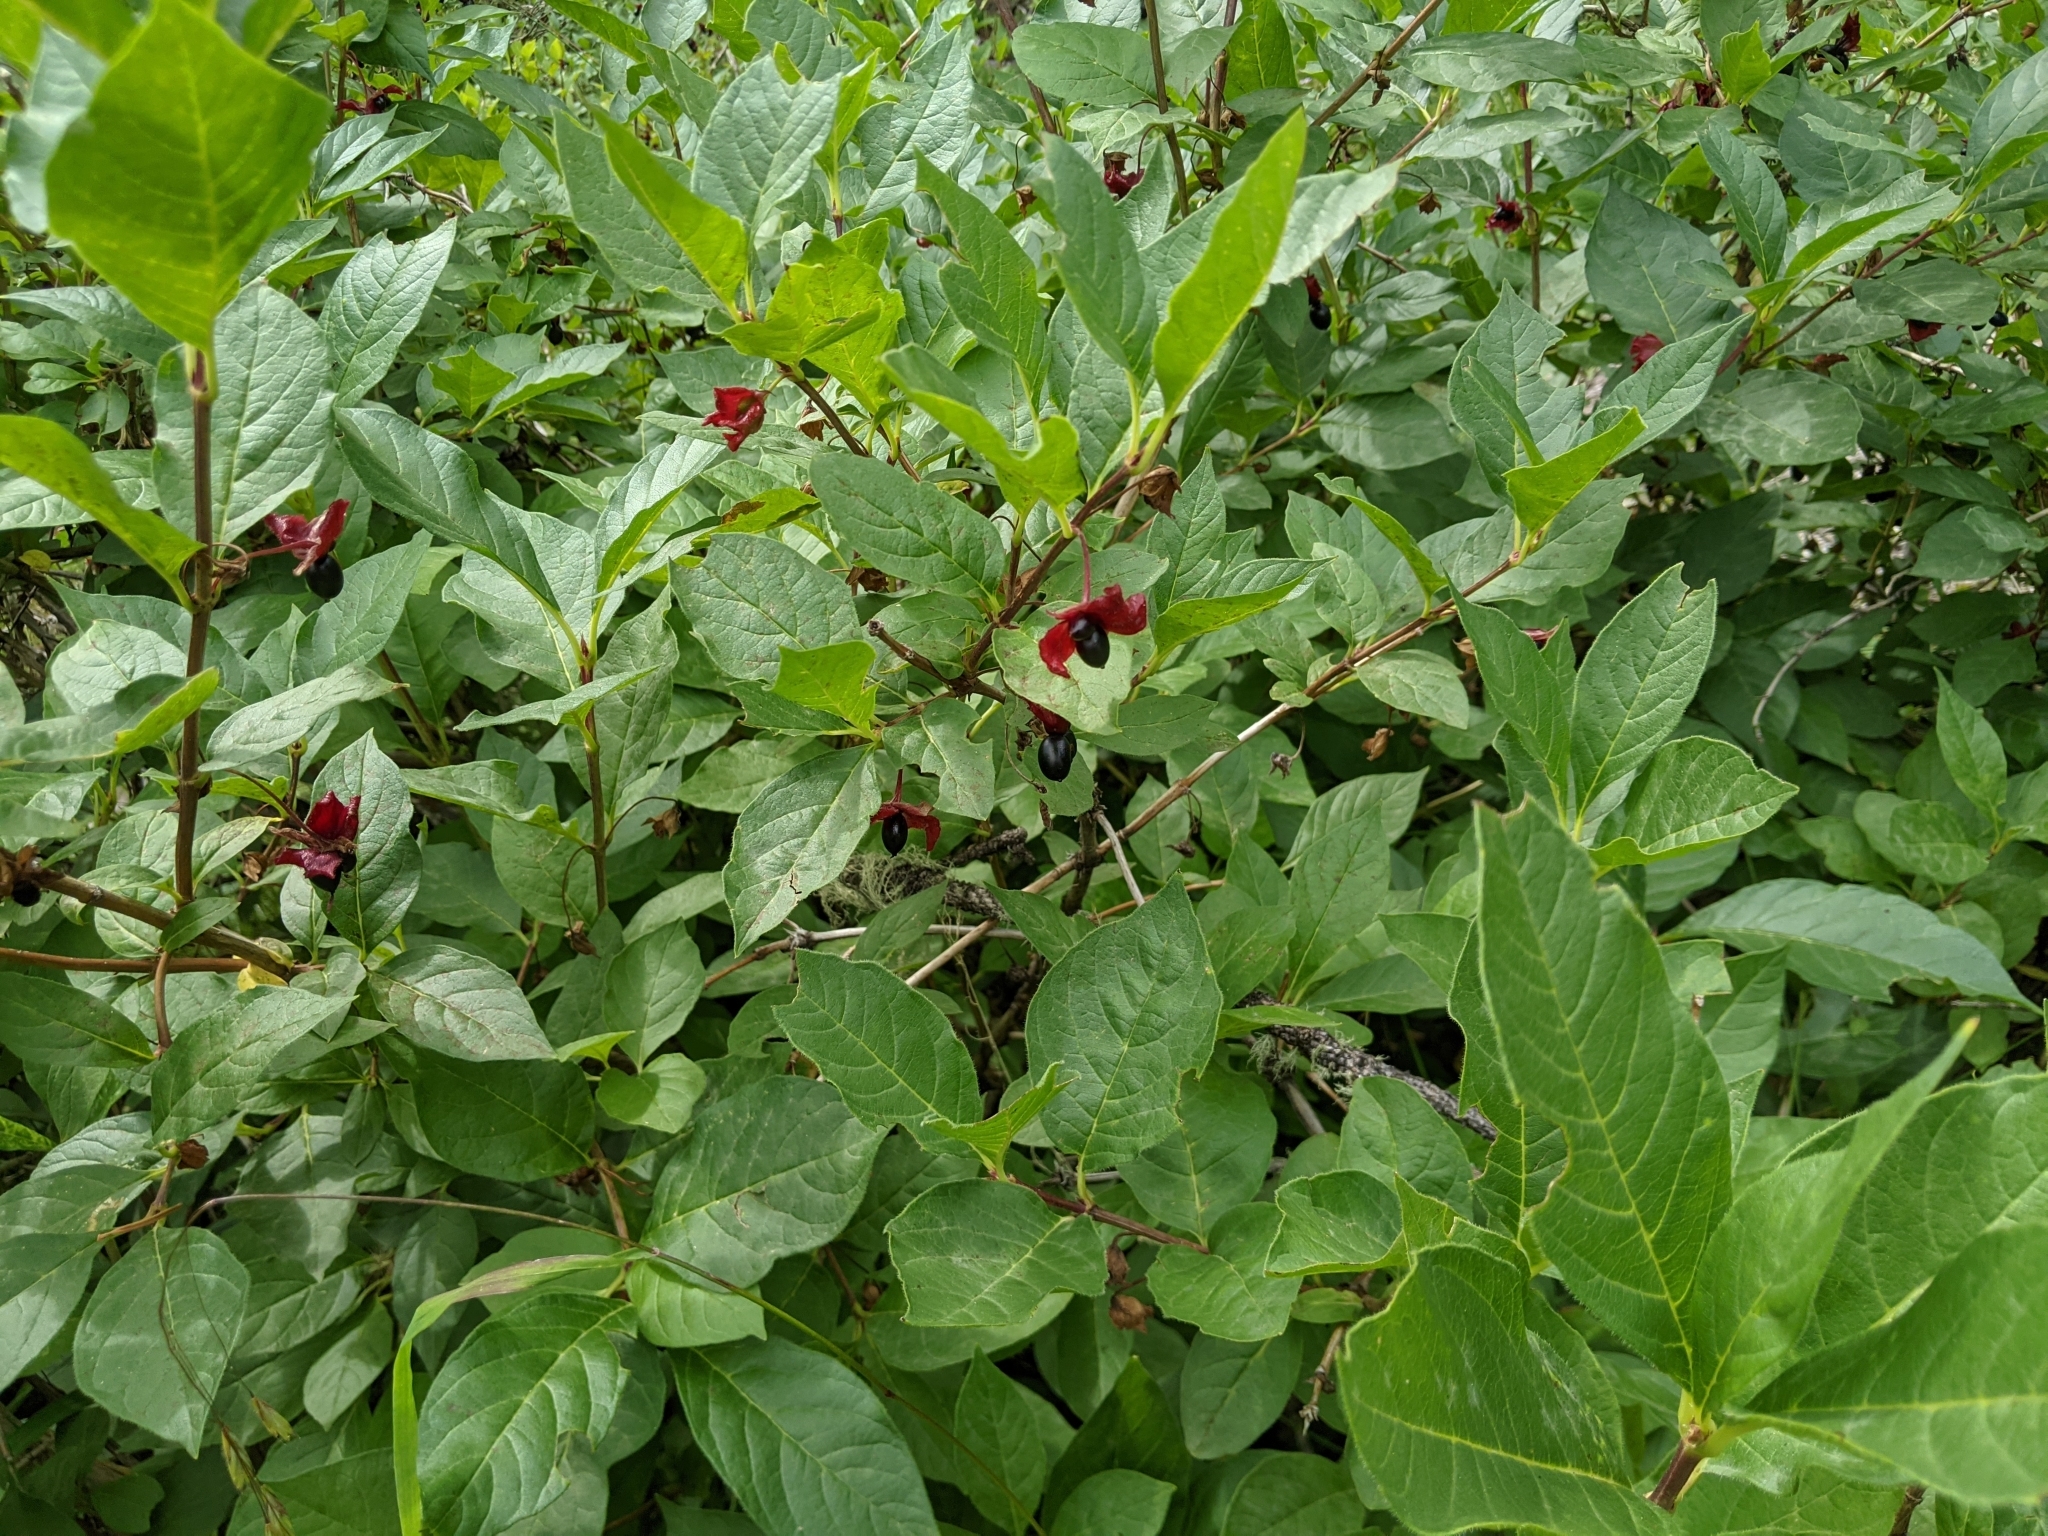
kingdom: Plantae
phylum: Tracheophyta
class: Magnoliopsida
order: Dipsacales
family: Caprifoliaceae
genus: Lonicera
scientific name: Lonicera involucrata
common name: Californian honeysuckle
